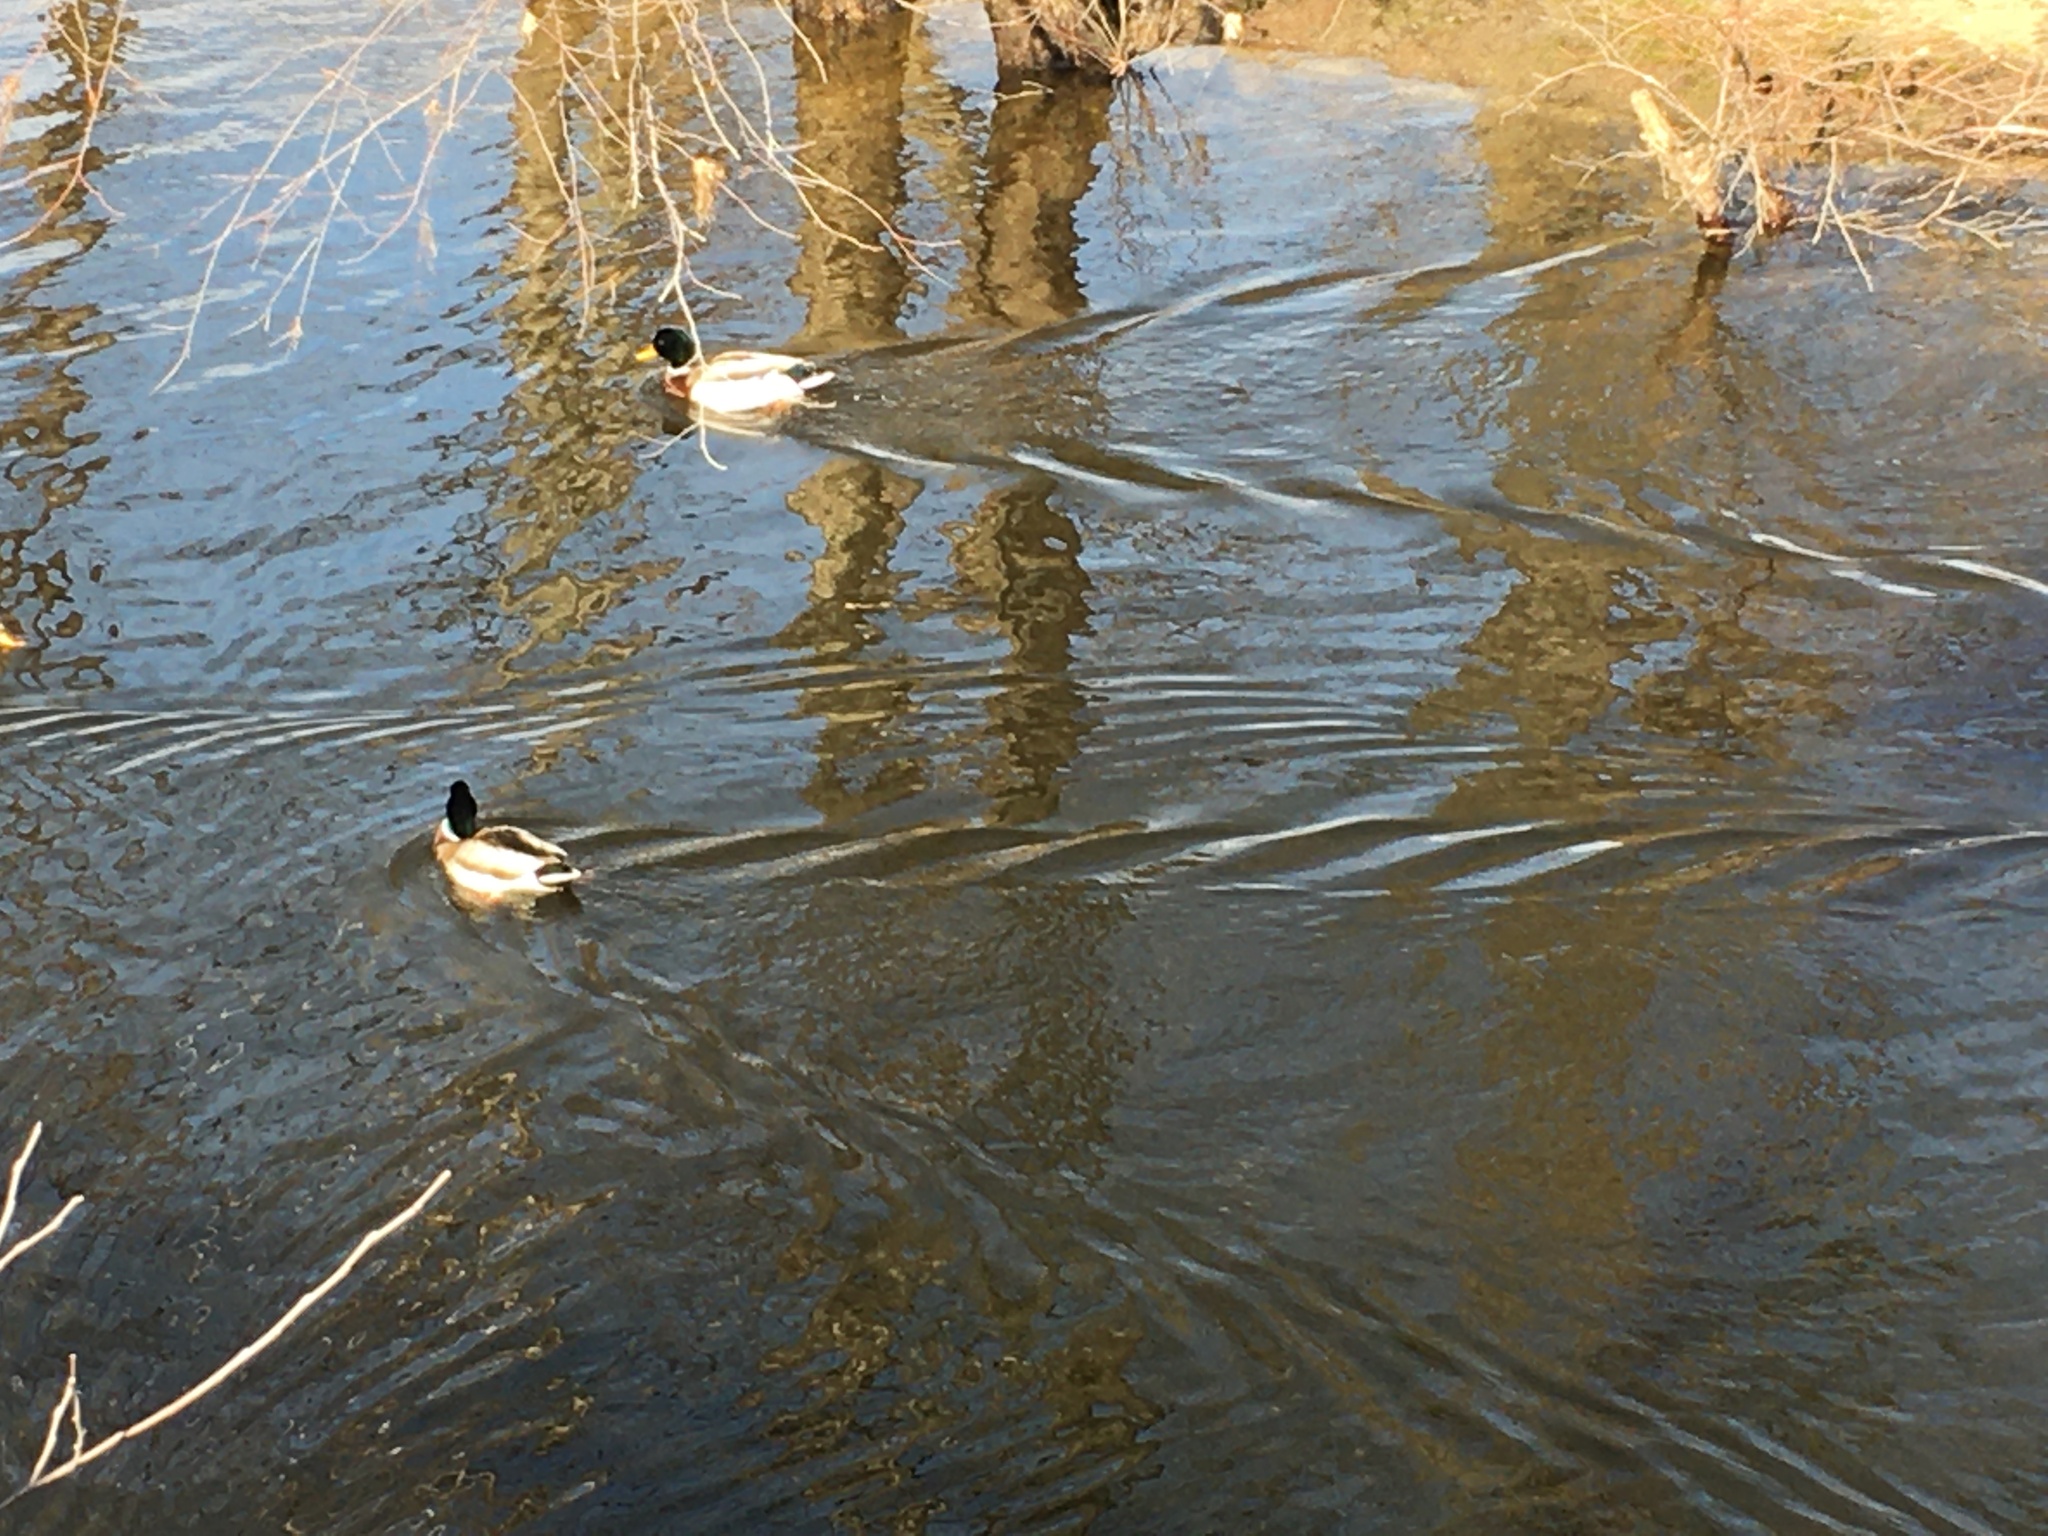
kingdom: Animalia
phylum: Chordata
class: Aves
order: Anseriformes
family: Anatidae
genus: Anas
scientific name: Anas platyrhynchos
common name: Mallard
